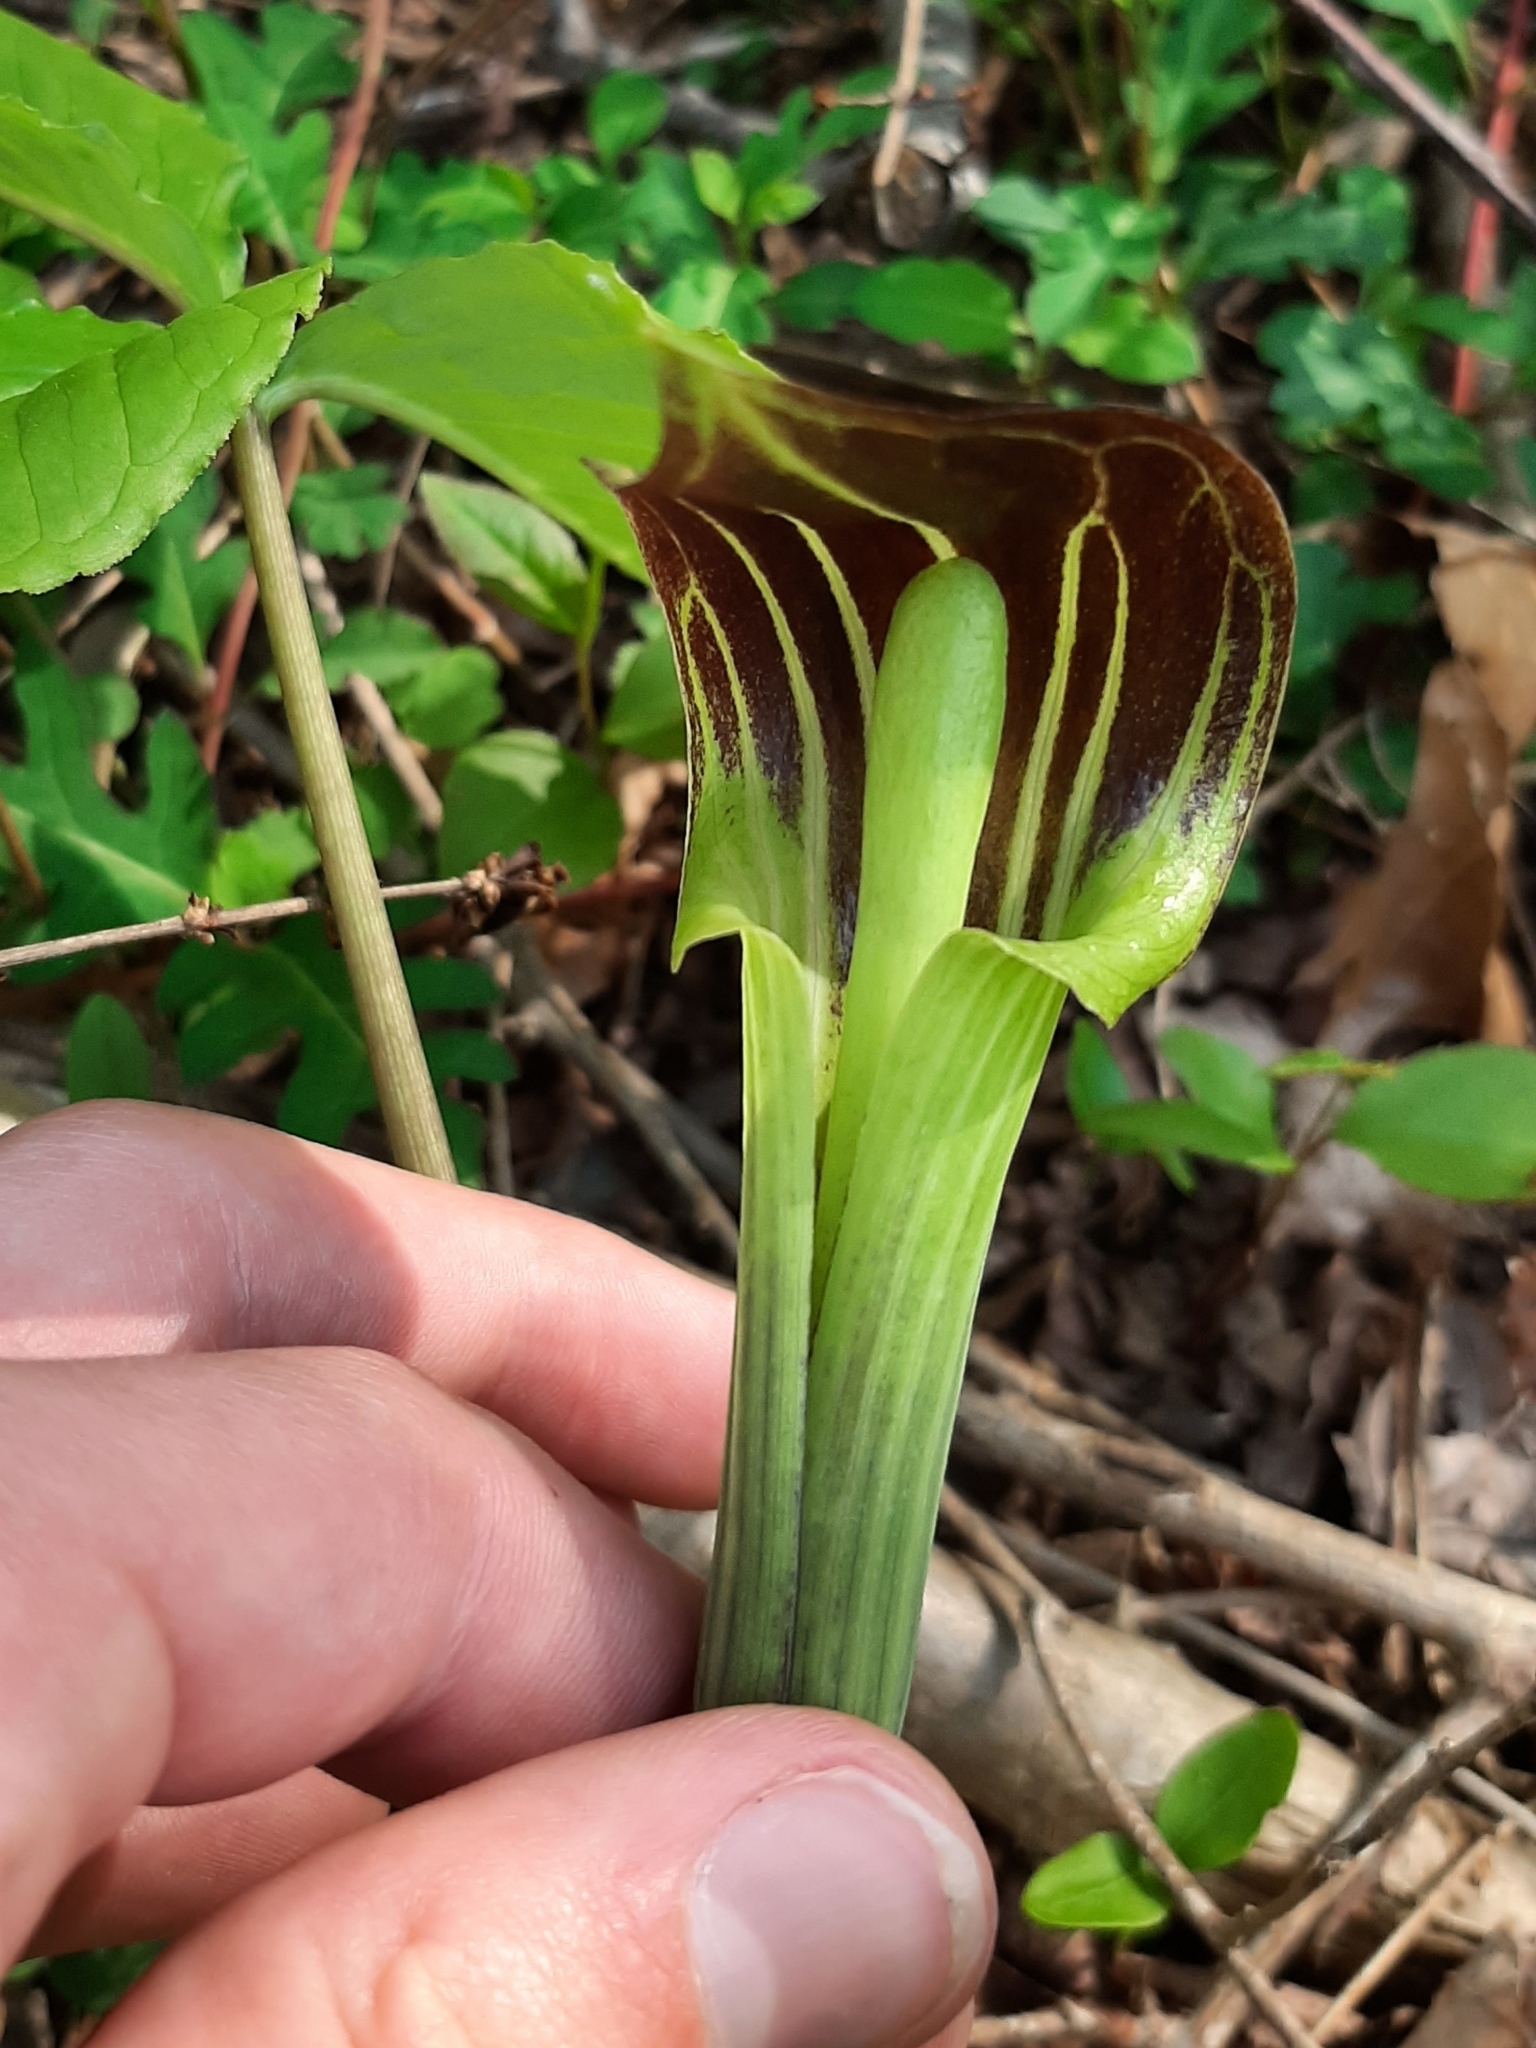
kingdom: Plantae
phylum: Tracheophyta
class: Liliopsida
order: Alismatales
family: Araceae
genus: Arisaema
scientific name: Arisaema triphyllum
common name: Jack-in-the-pulpit
